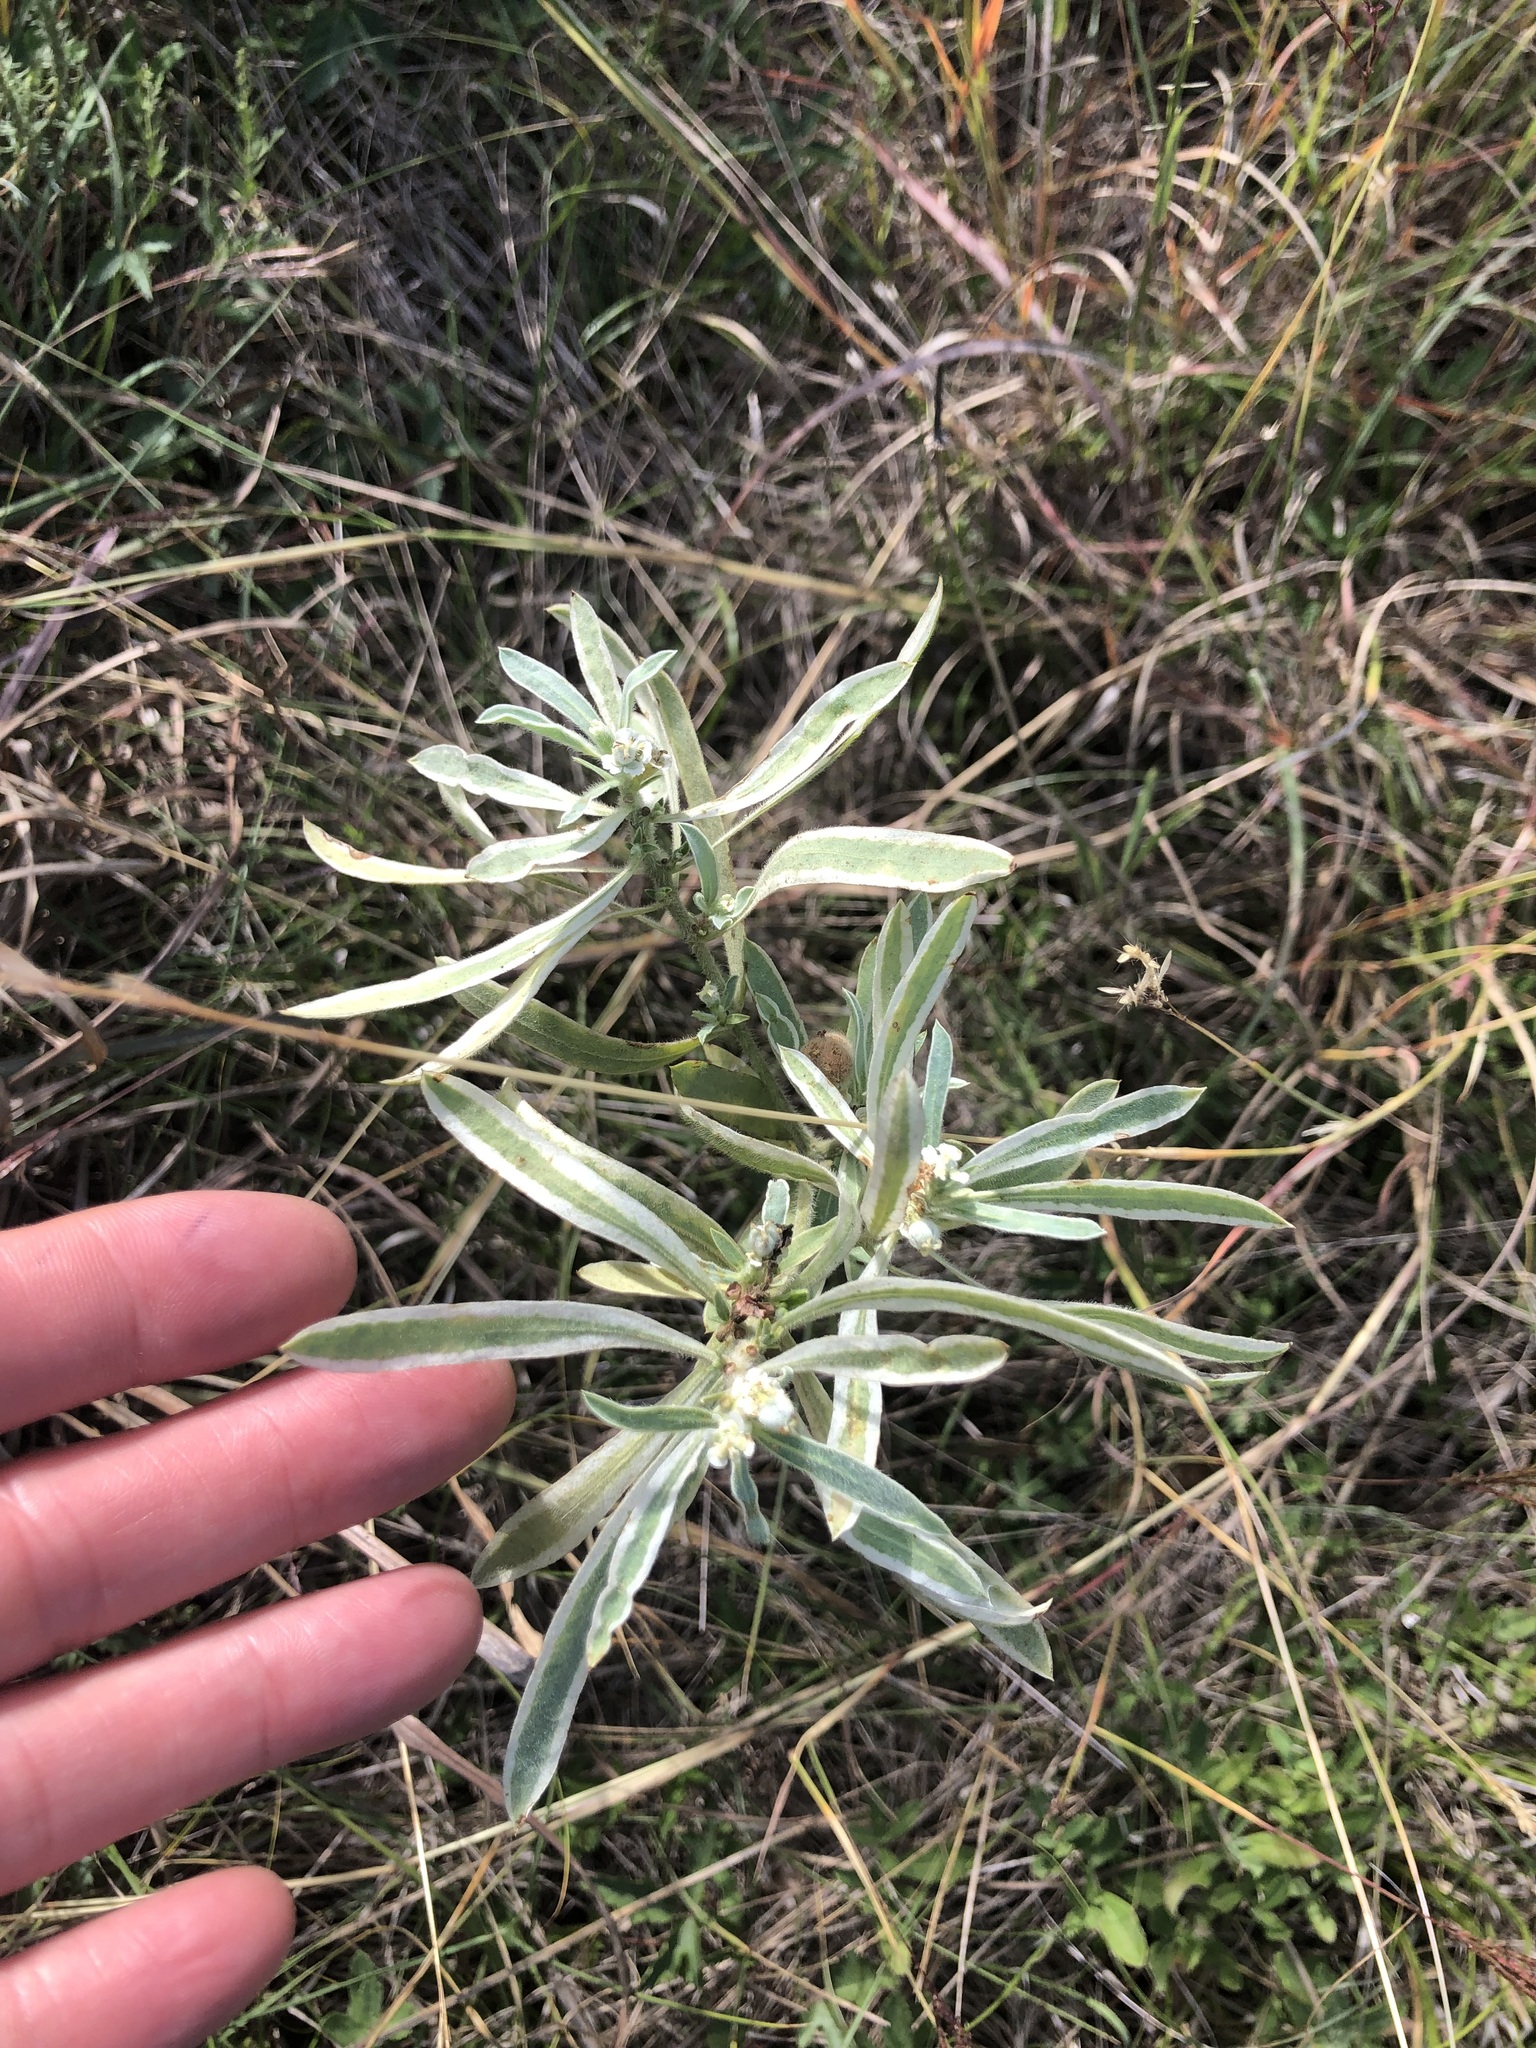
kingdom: Plantae
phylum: Tracheophyta
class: Magnoliopsida
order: Malpighiales
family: Euphorbiaceae
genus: Euphorbia
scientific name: Euphorbia bicolor
